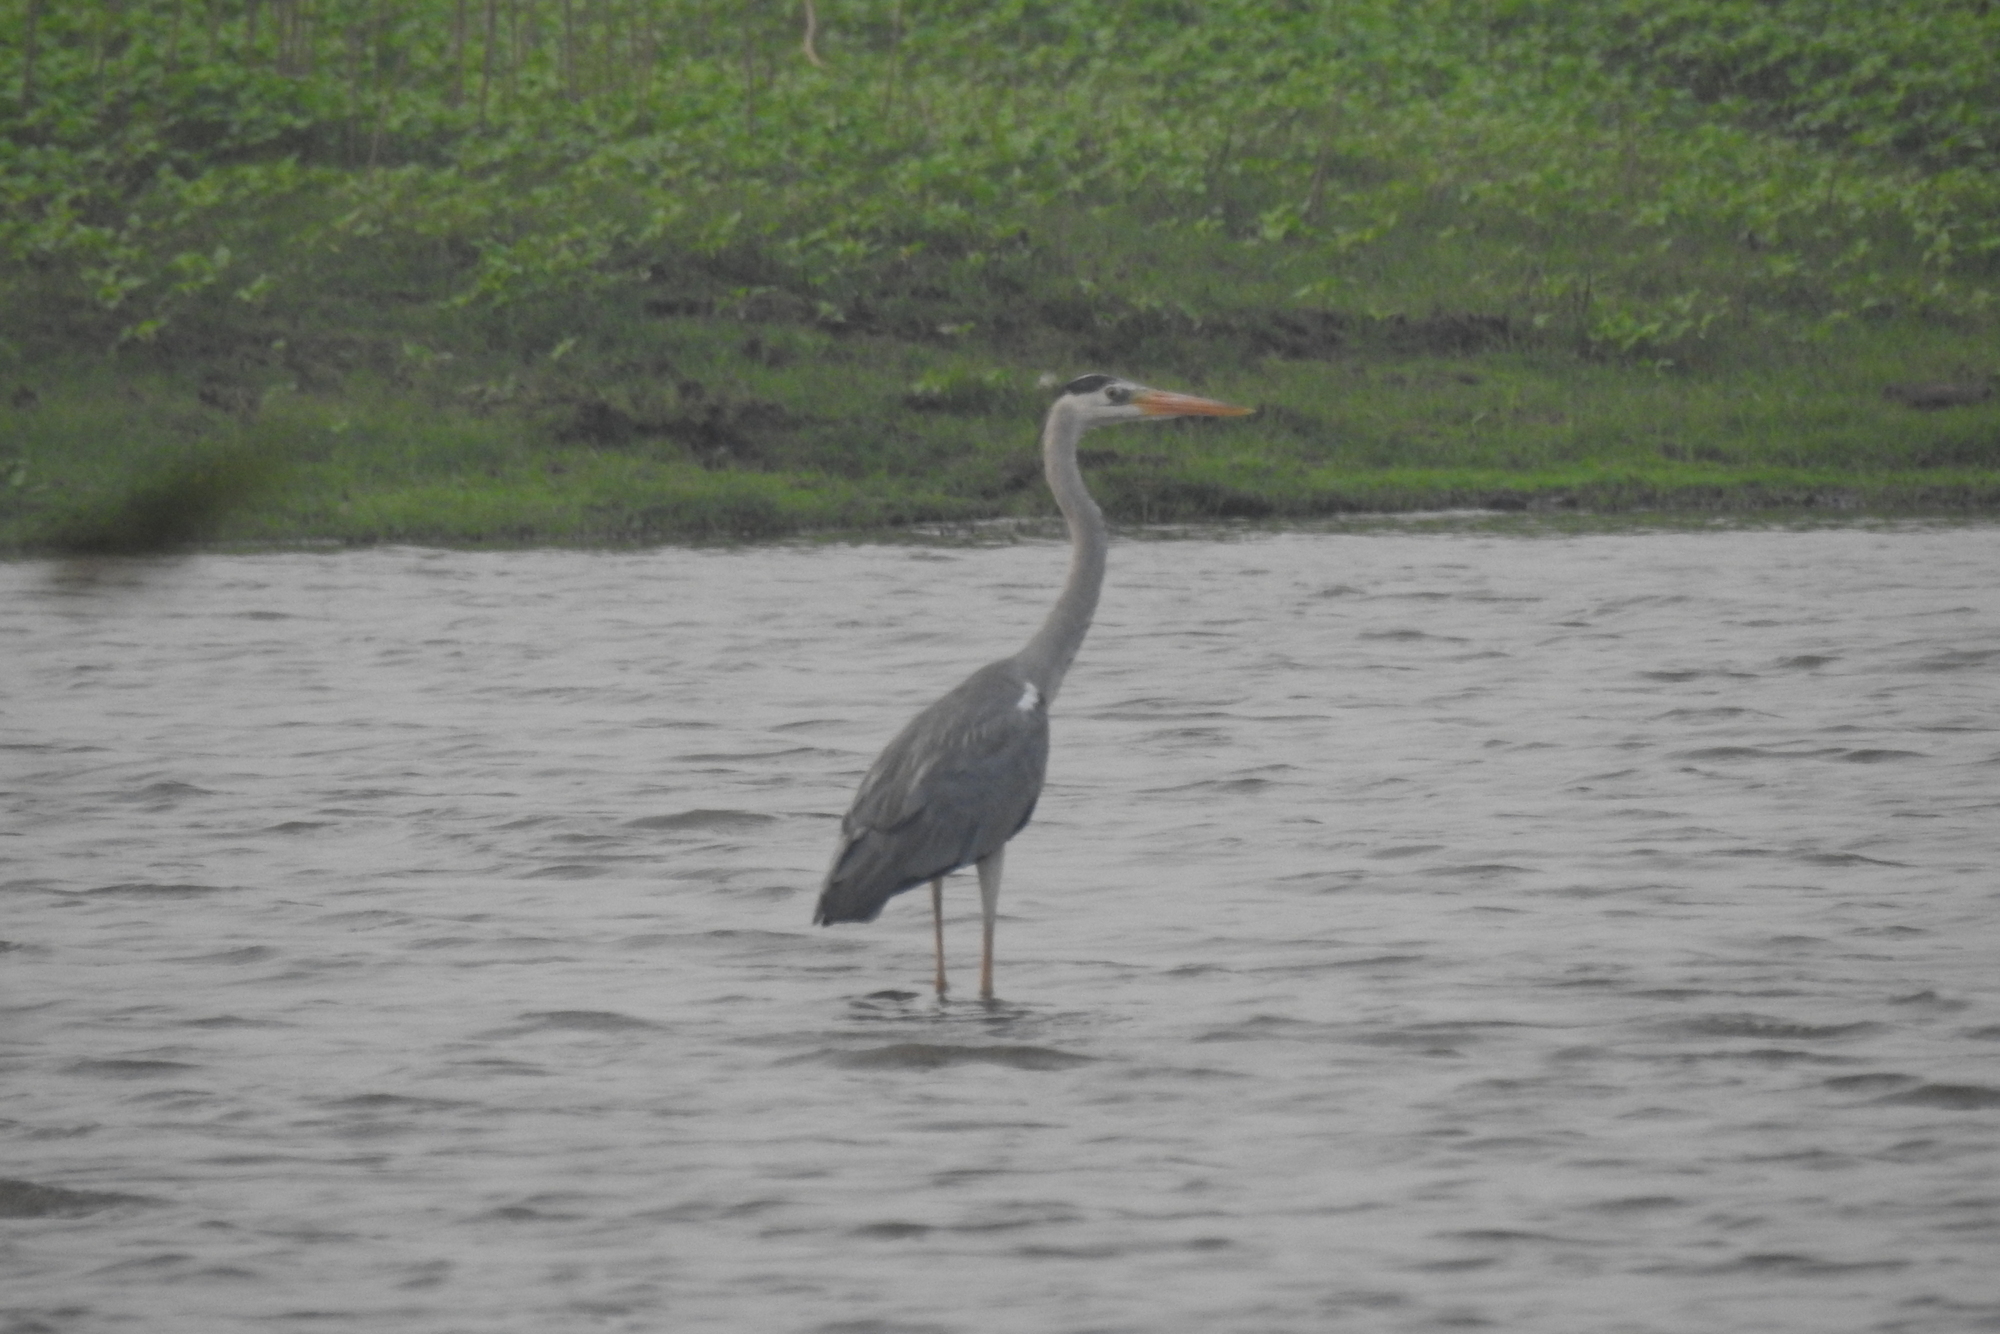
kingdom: Animalia
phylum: Chordata
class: Aves
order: Pelecaniformes
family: Ardeidae
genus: Ardea
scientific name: Ardea cinerea
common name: Grey heron
